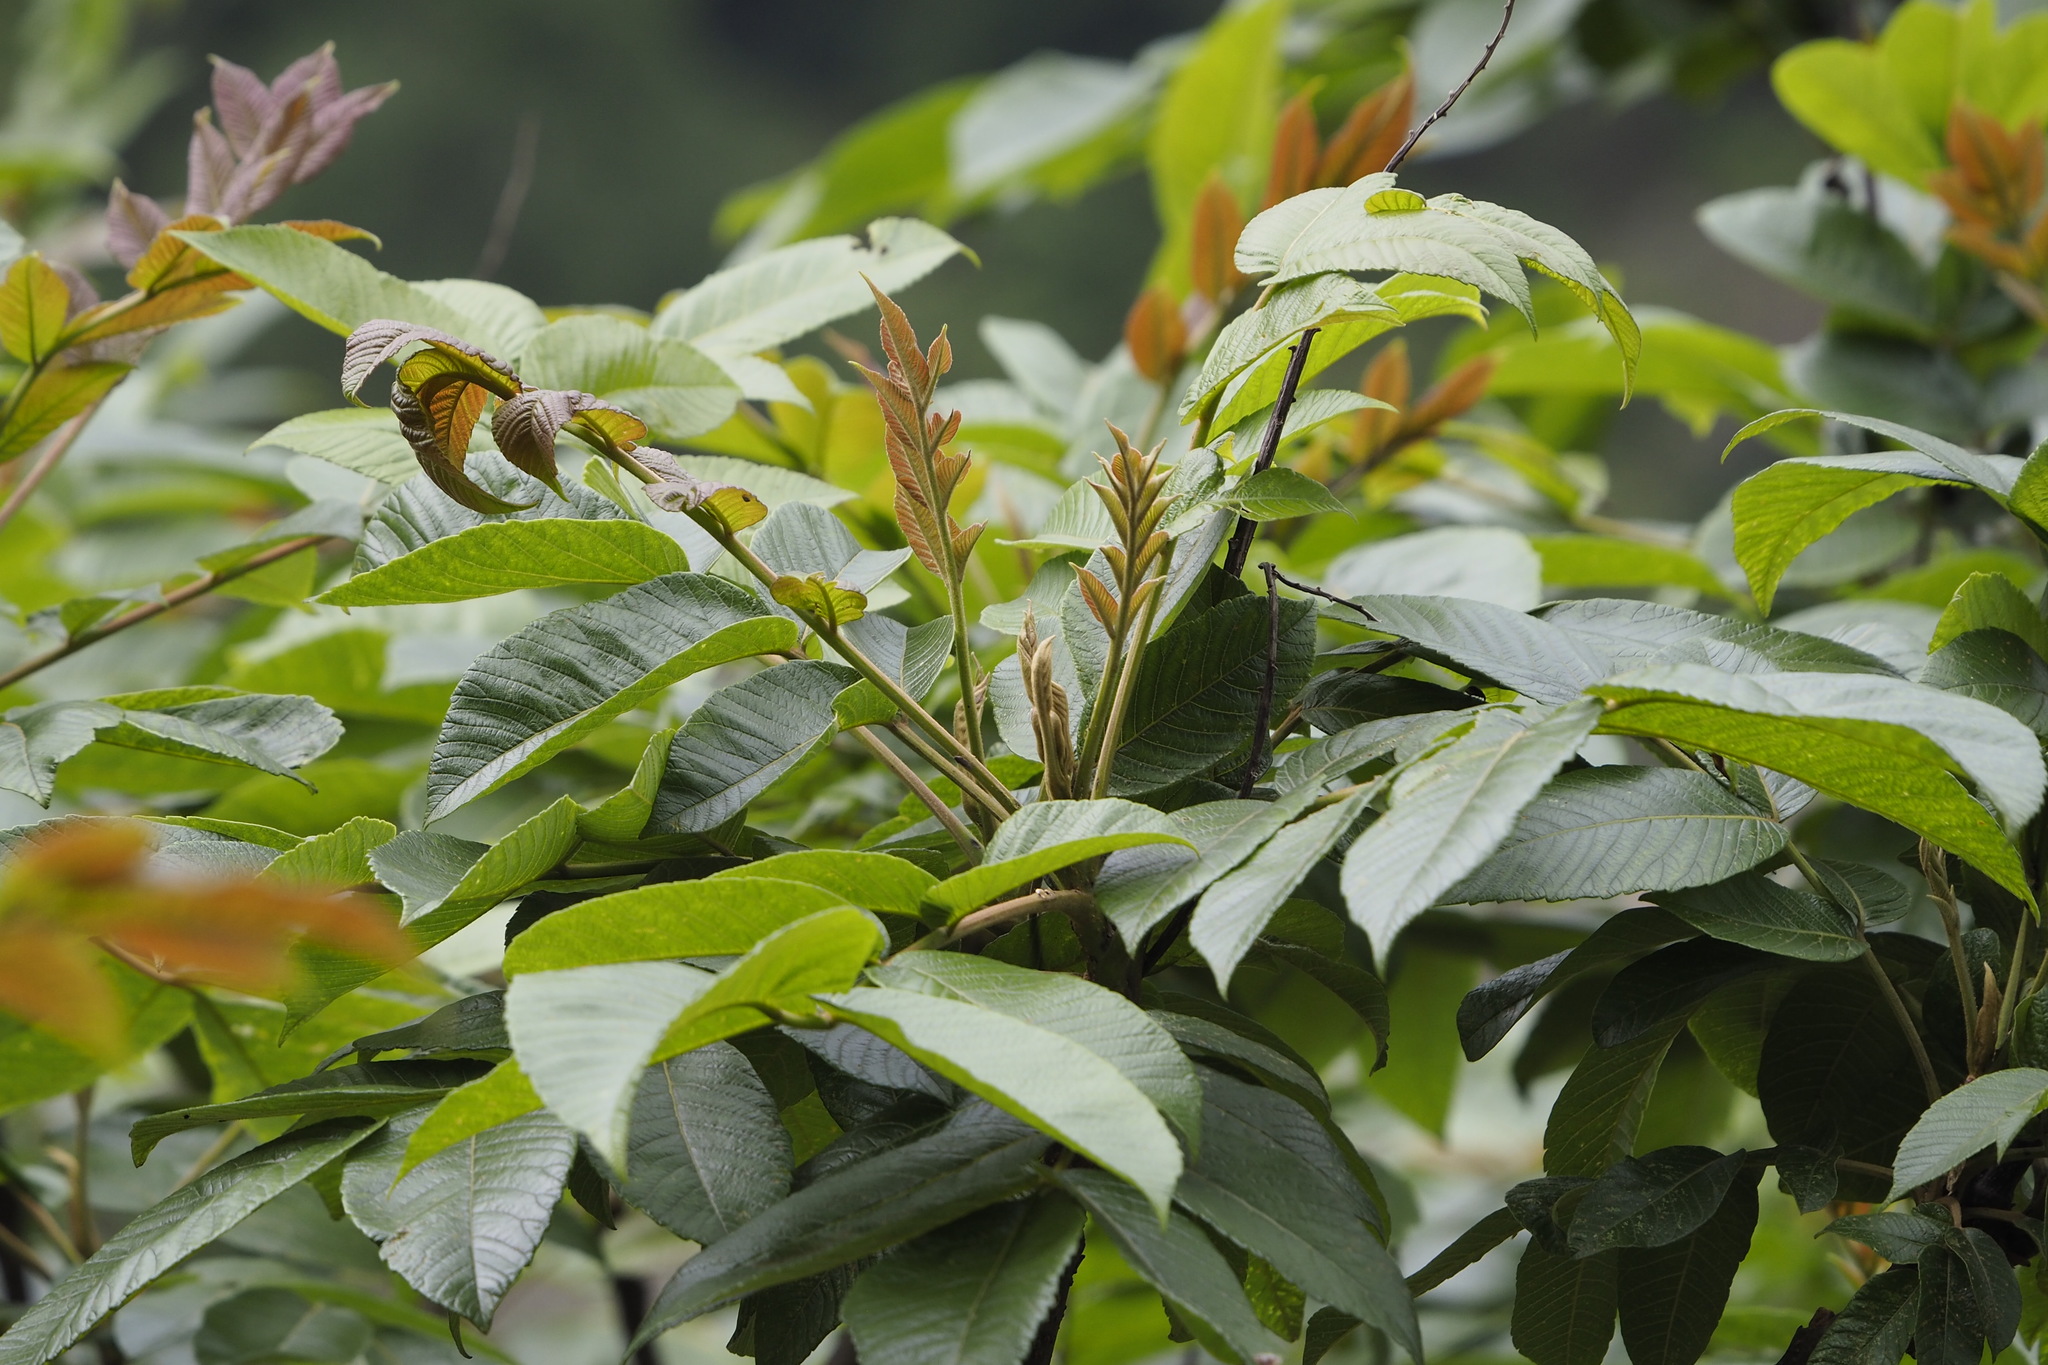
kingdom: Plantae
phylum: Tracheophyta
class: Magnoliopsida
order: Sapindales
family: Anacardiaceae
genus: Rhus
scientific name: Rhus chinensis
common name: Chinese gall
